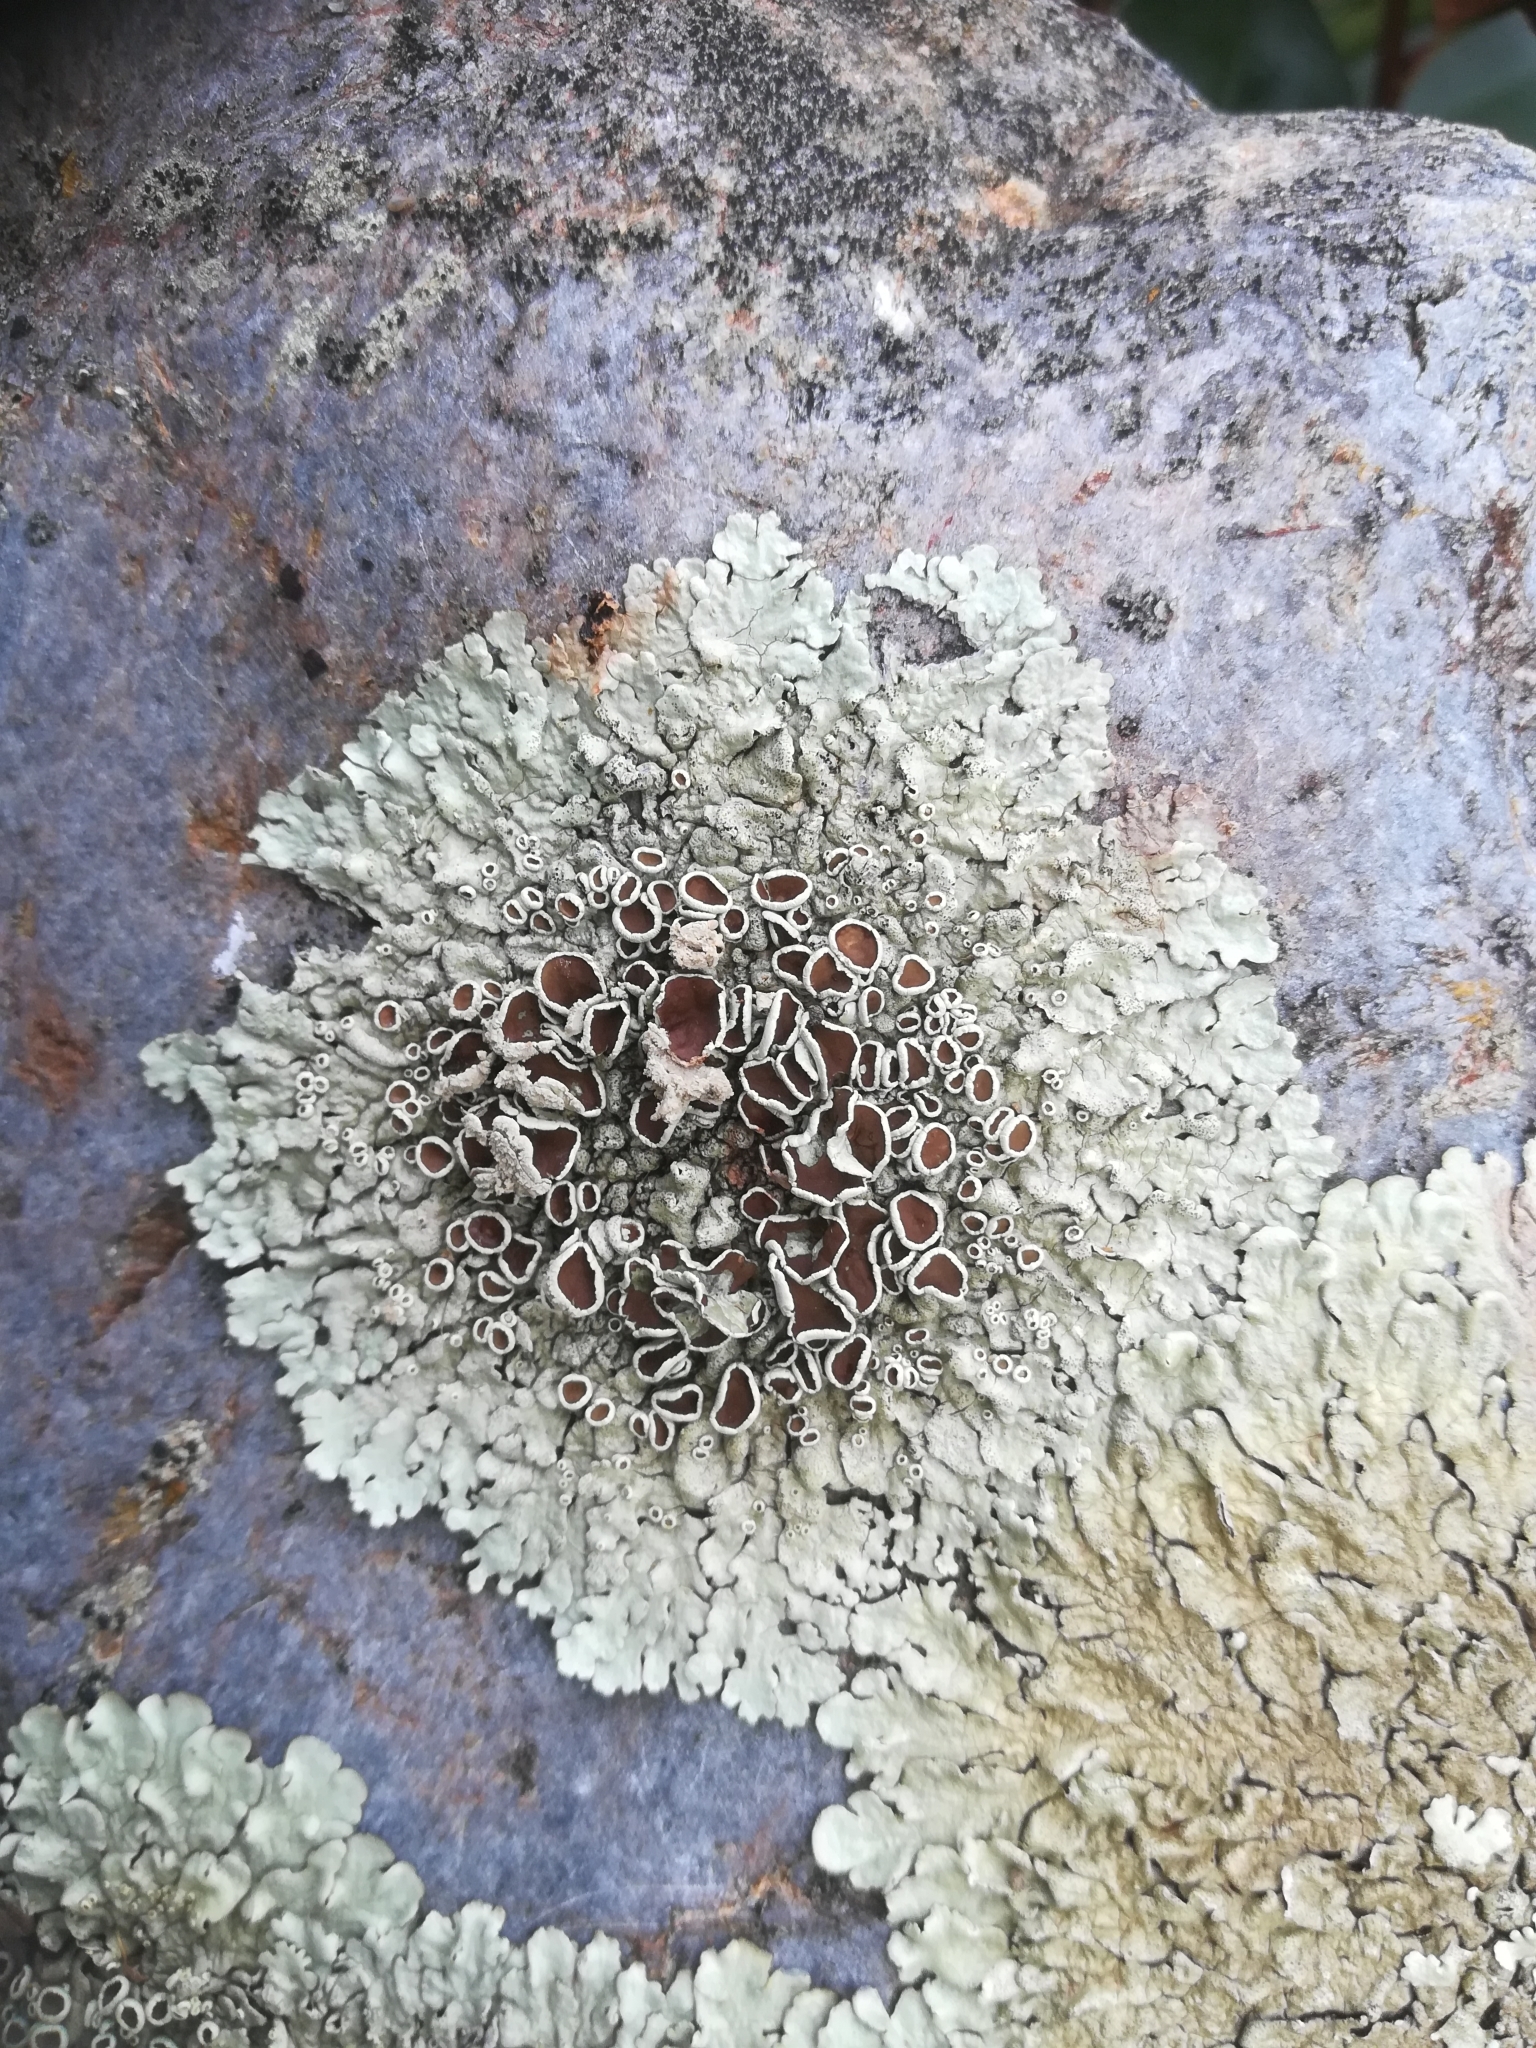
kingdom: Fungi
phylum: Ascomycota
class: Lecanoromycetes
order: Lecanorales
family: Parmeliaceae
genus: Xanthoparmelia
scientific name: Xanthoparmelia
